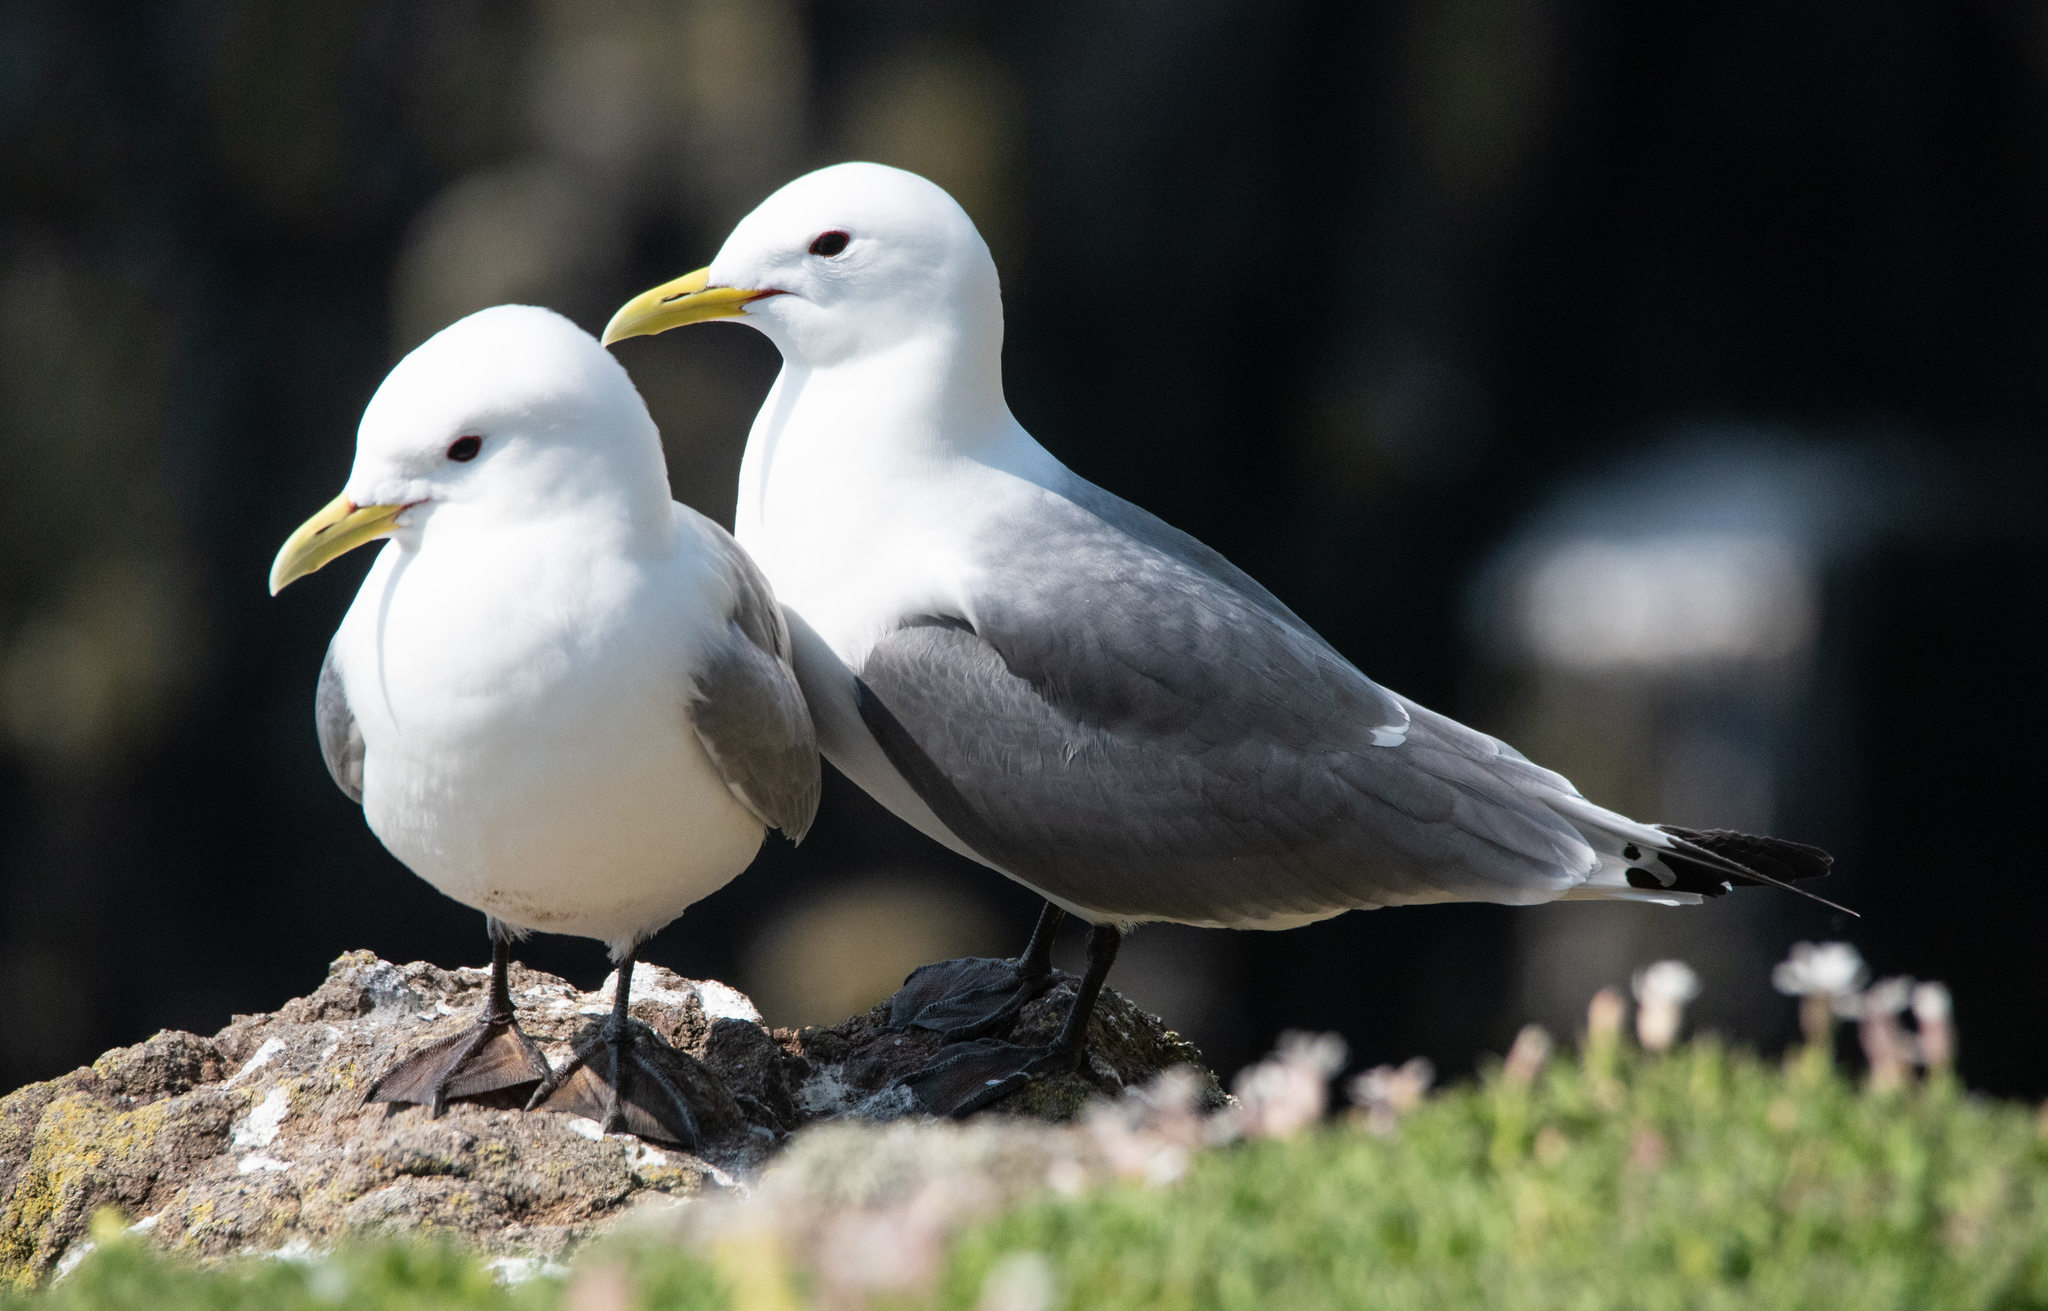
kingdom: Animalia
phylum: Chordata
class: Aves
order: Charadriiformes
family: Laridae
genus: Rissa
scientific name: Rissa tridactyla
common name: Black-legged kittiwake
